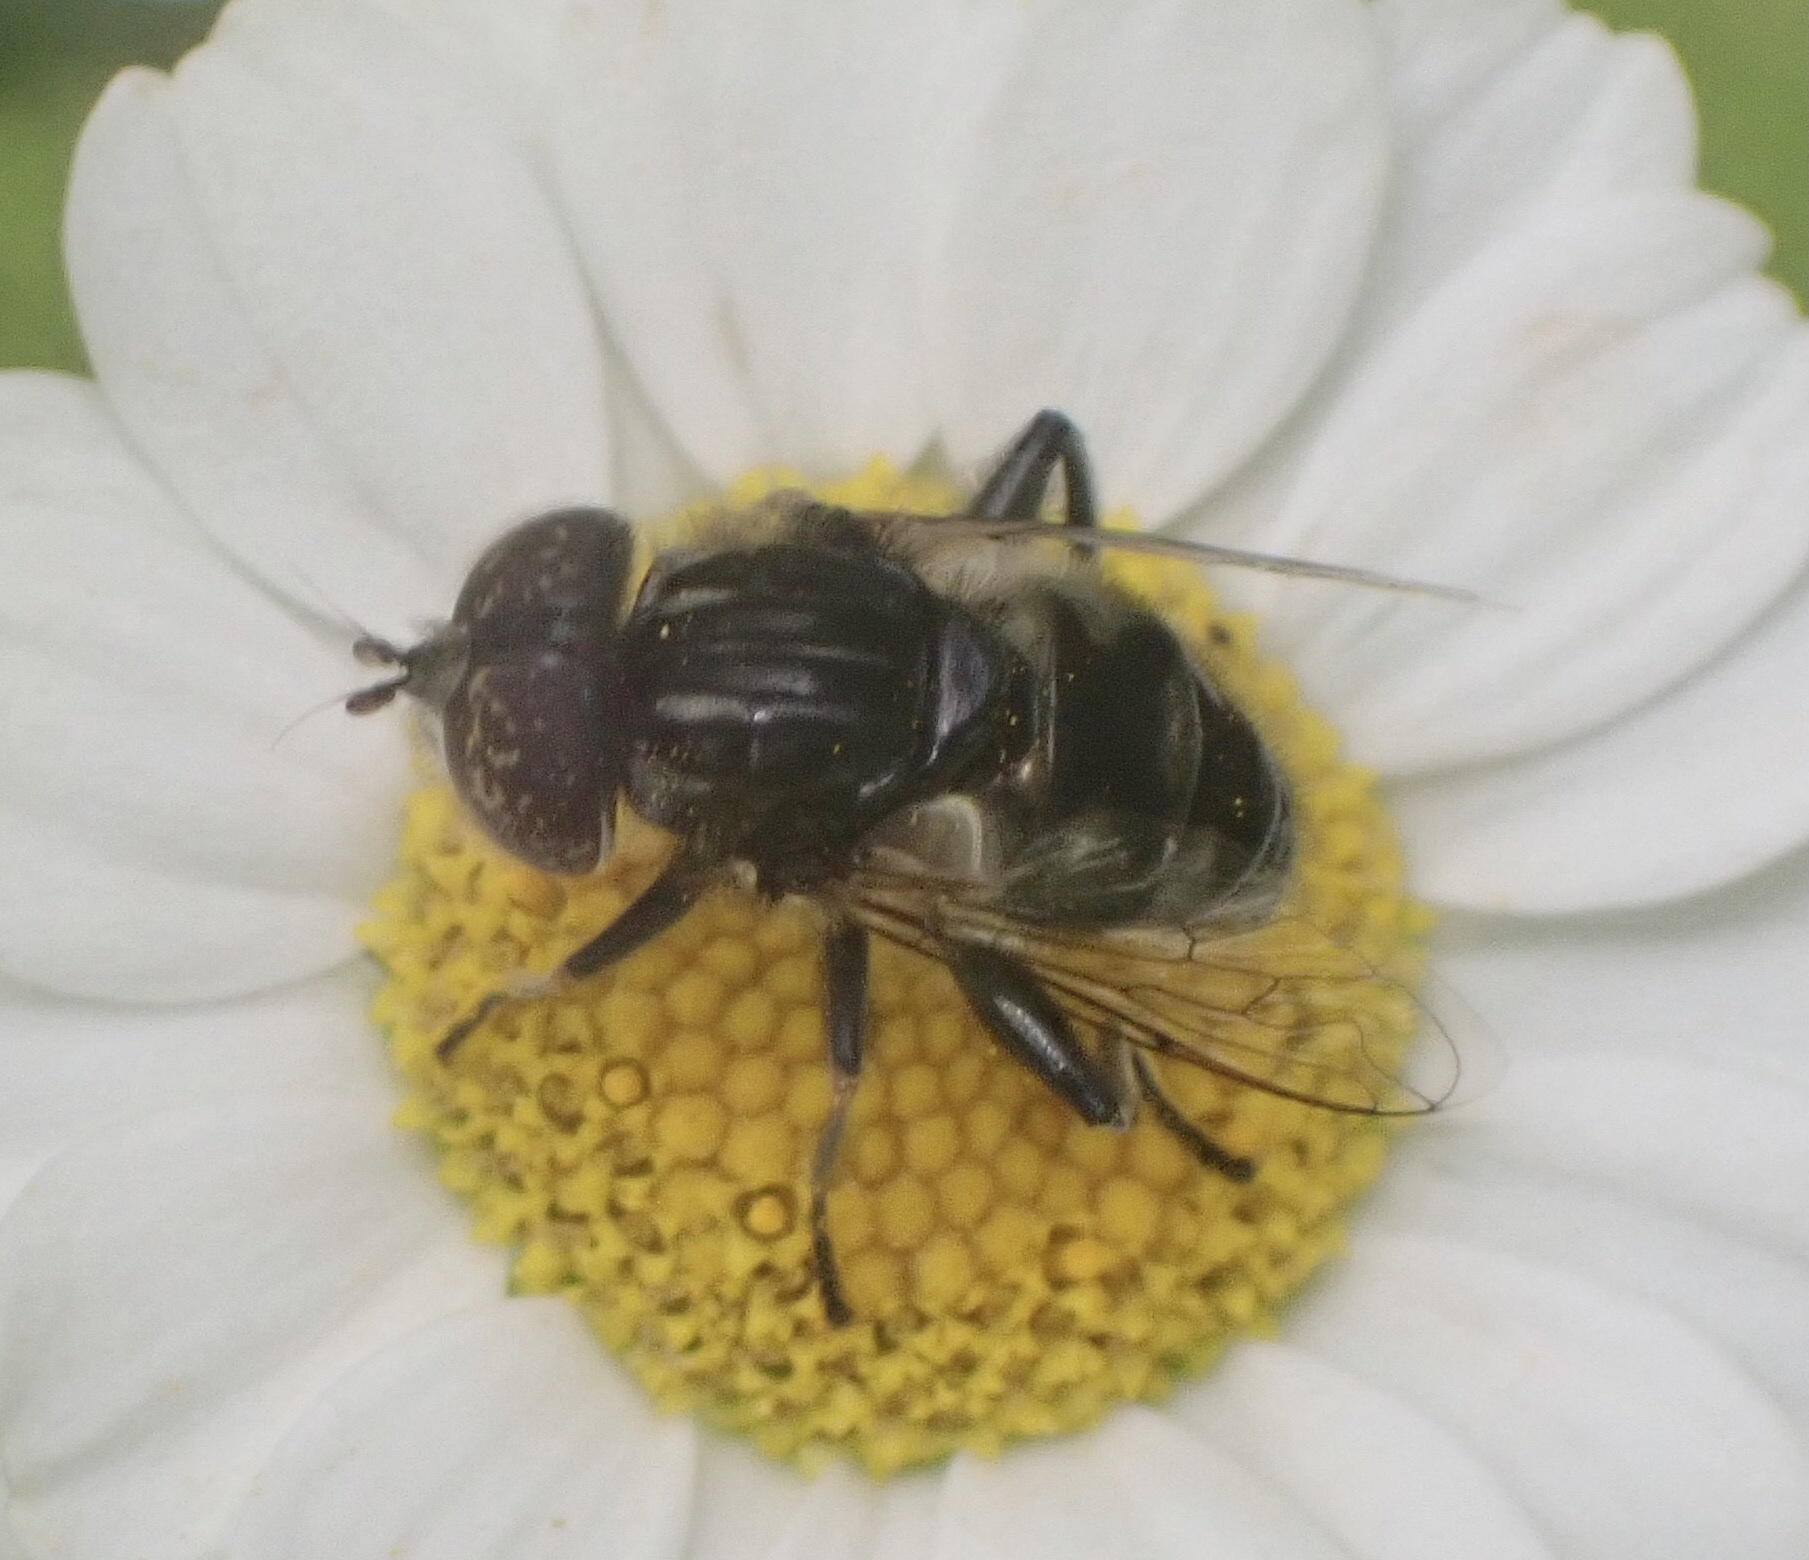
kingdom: Animalia
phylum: Arthropoda
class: Insecta
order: Diptera
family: Syrphidae
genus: Eristalinus
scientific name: Eristalinus sepulchralis
